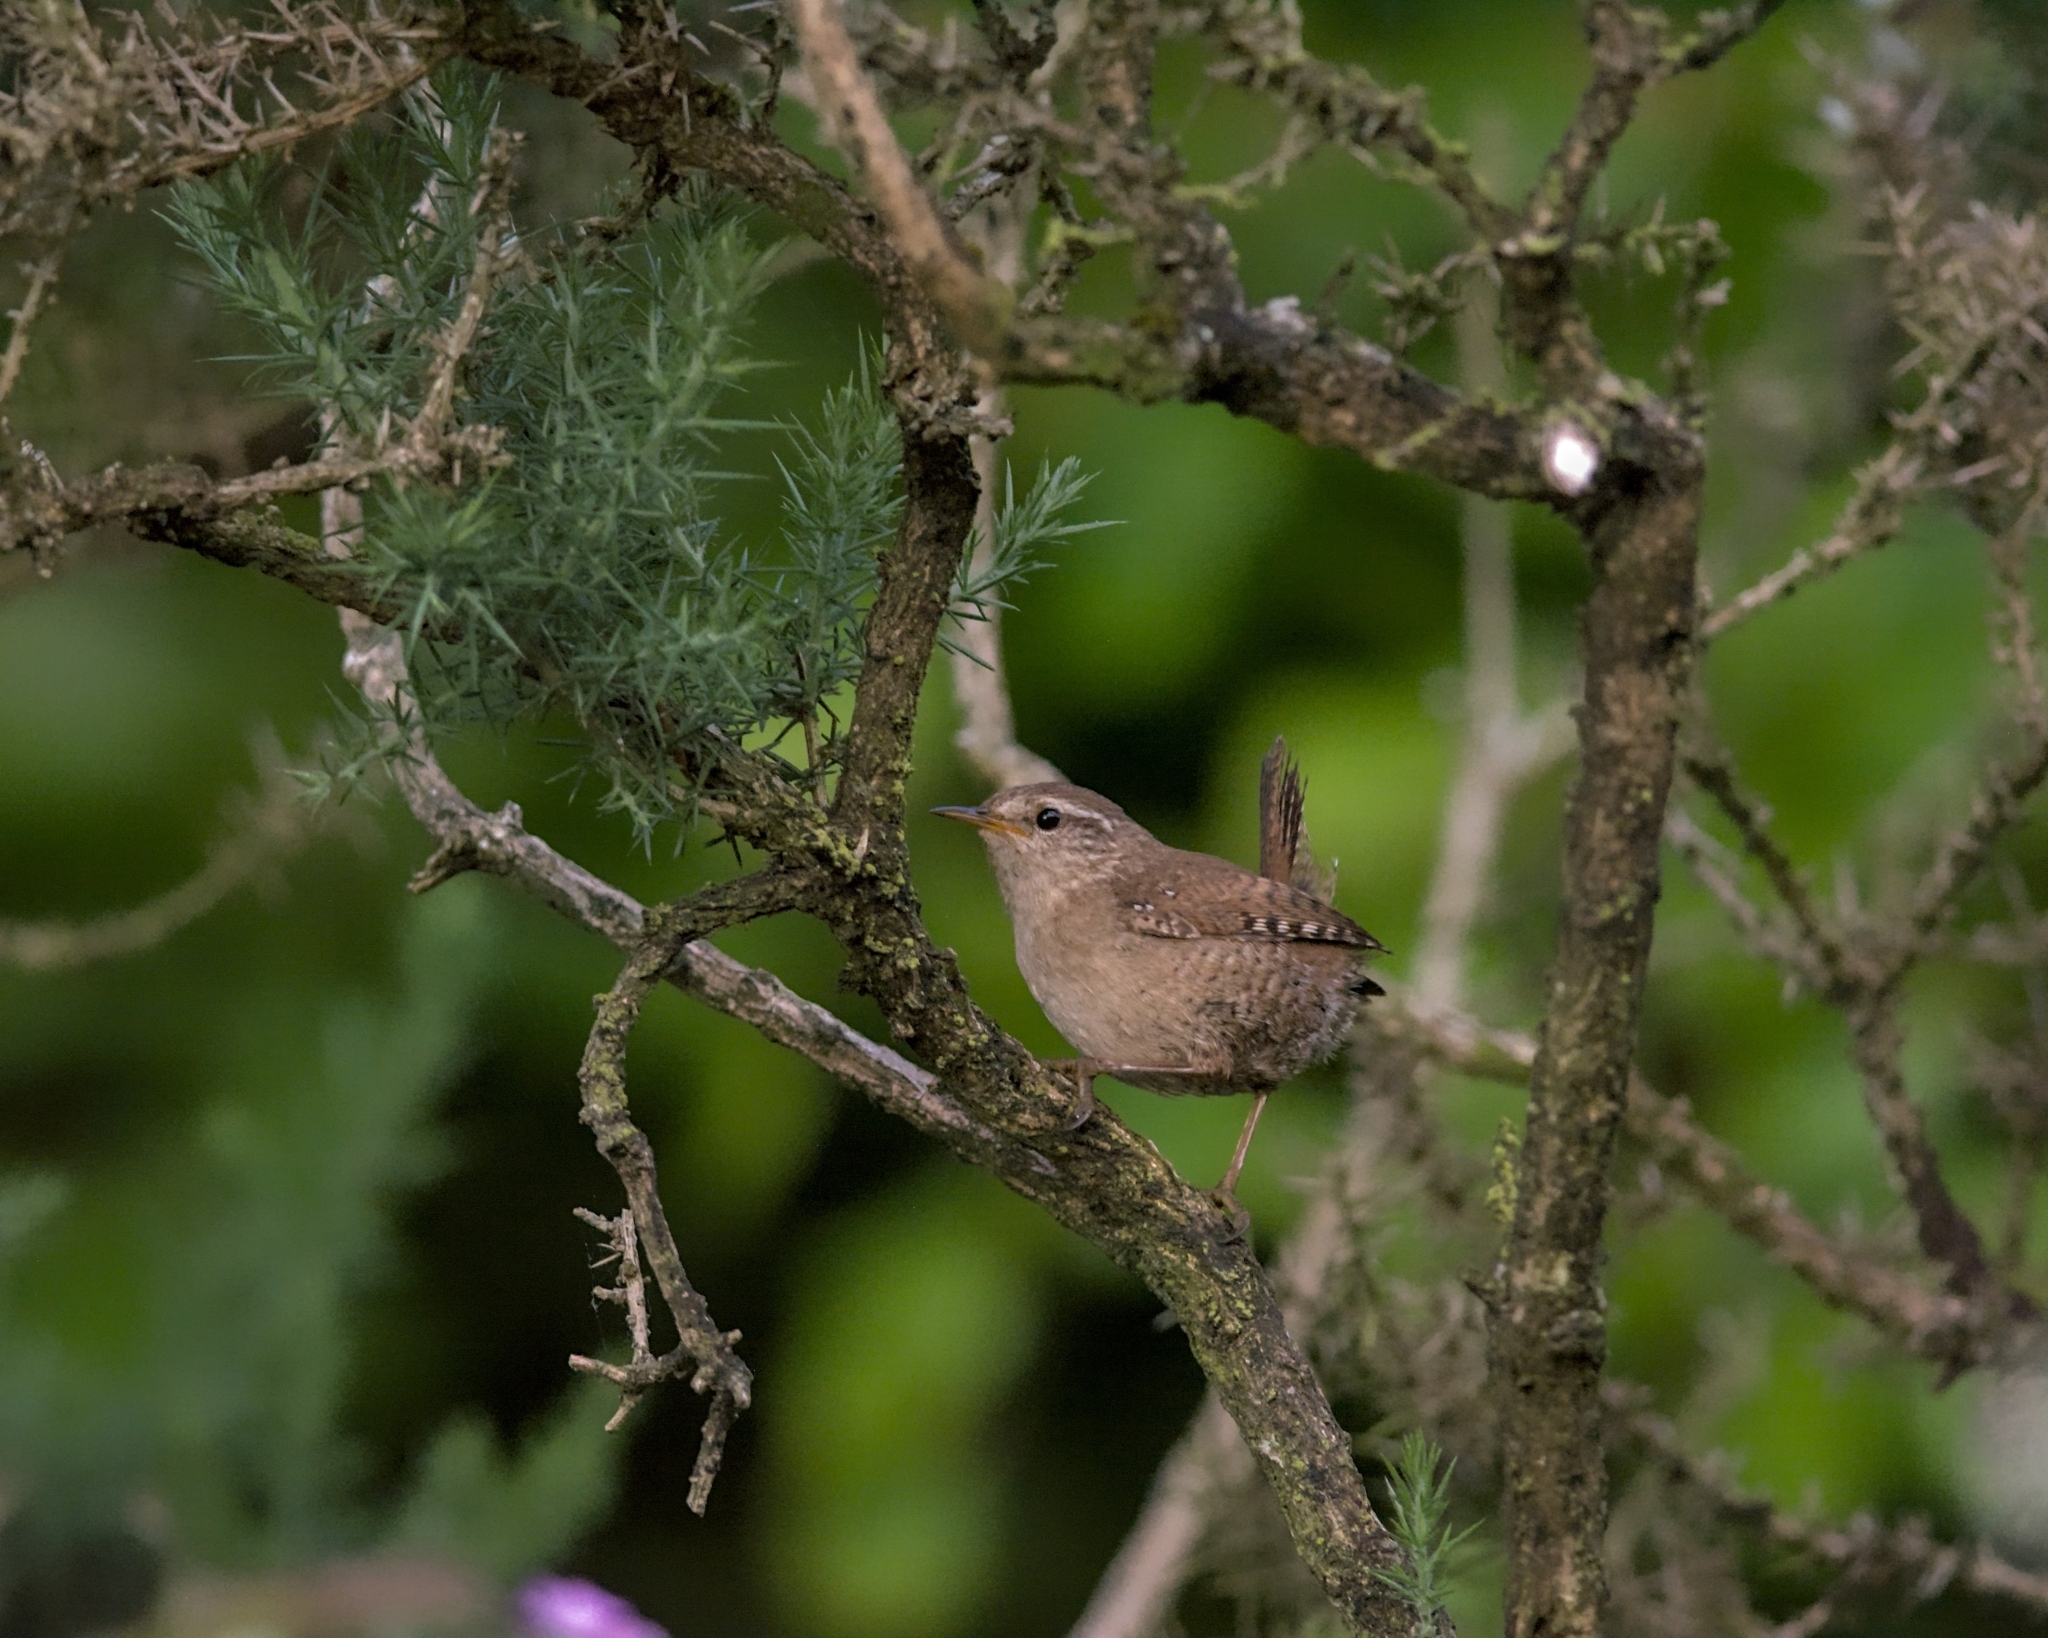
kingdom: Animalia
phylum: Chordata
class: Aves
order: Passeriformes
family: Troglodytidae
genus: Troglodytes
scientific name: Troglodytes troglodytes
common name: Eurasian wren
